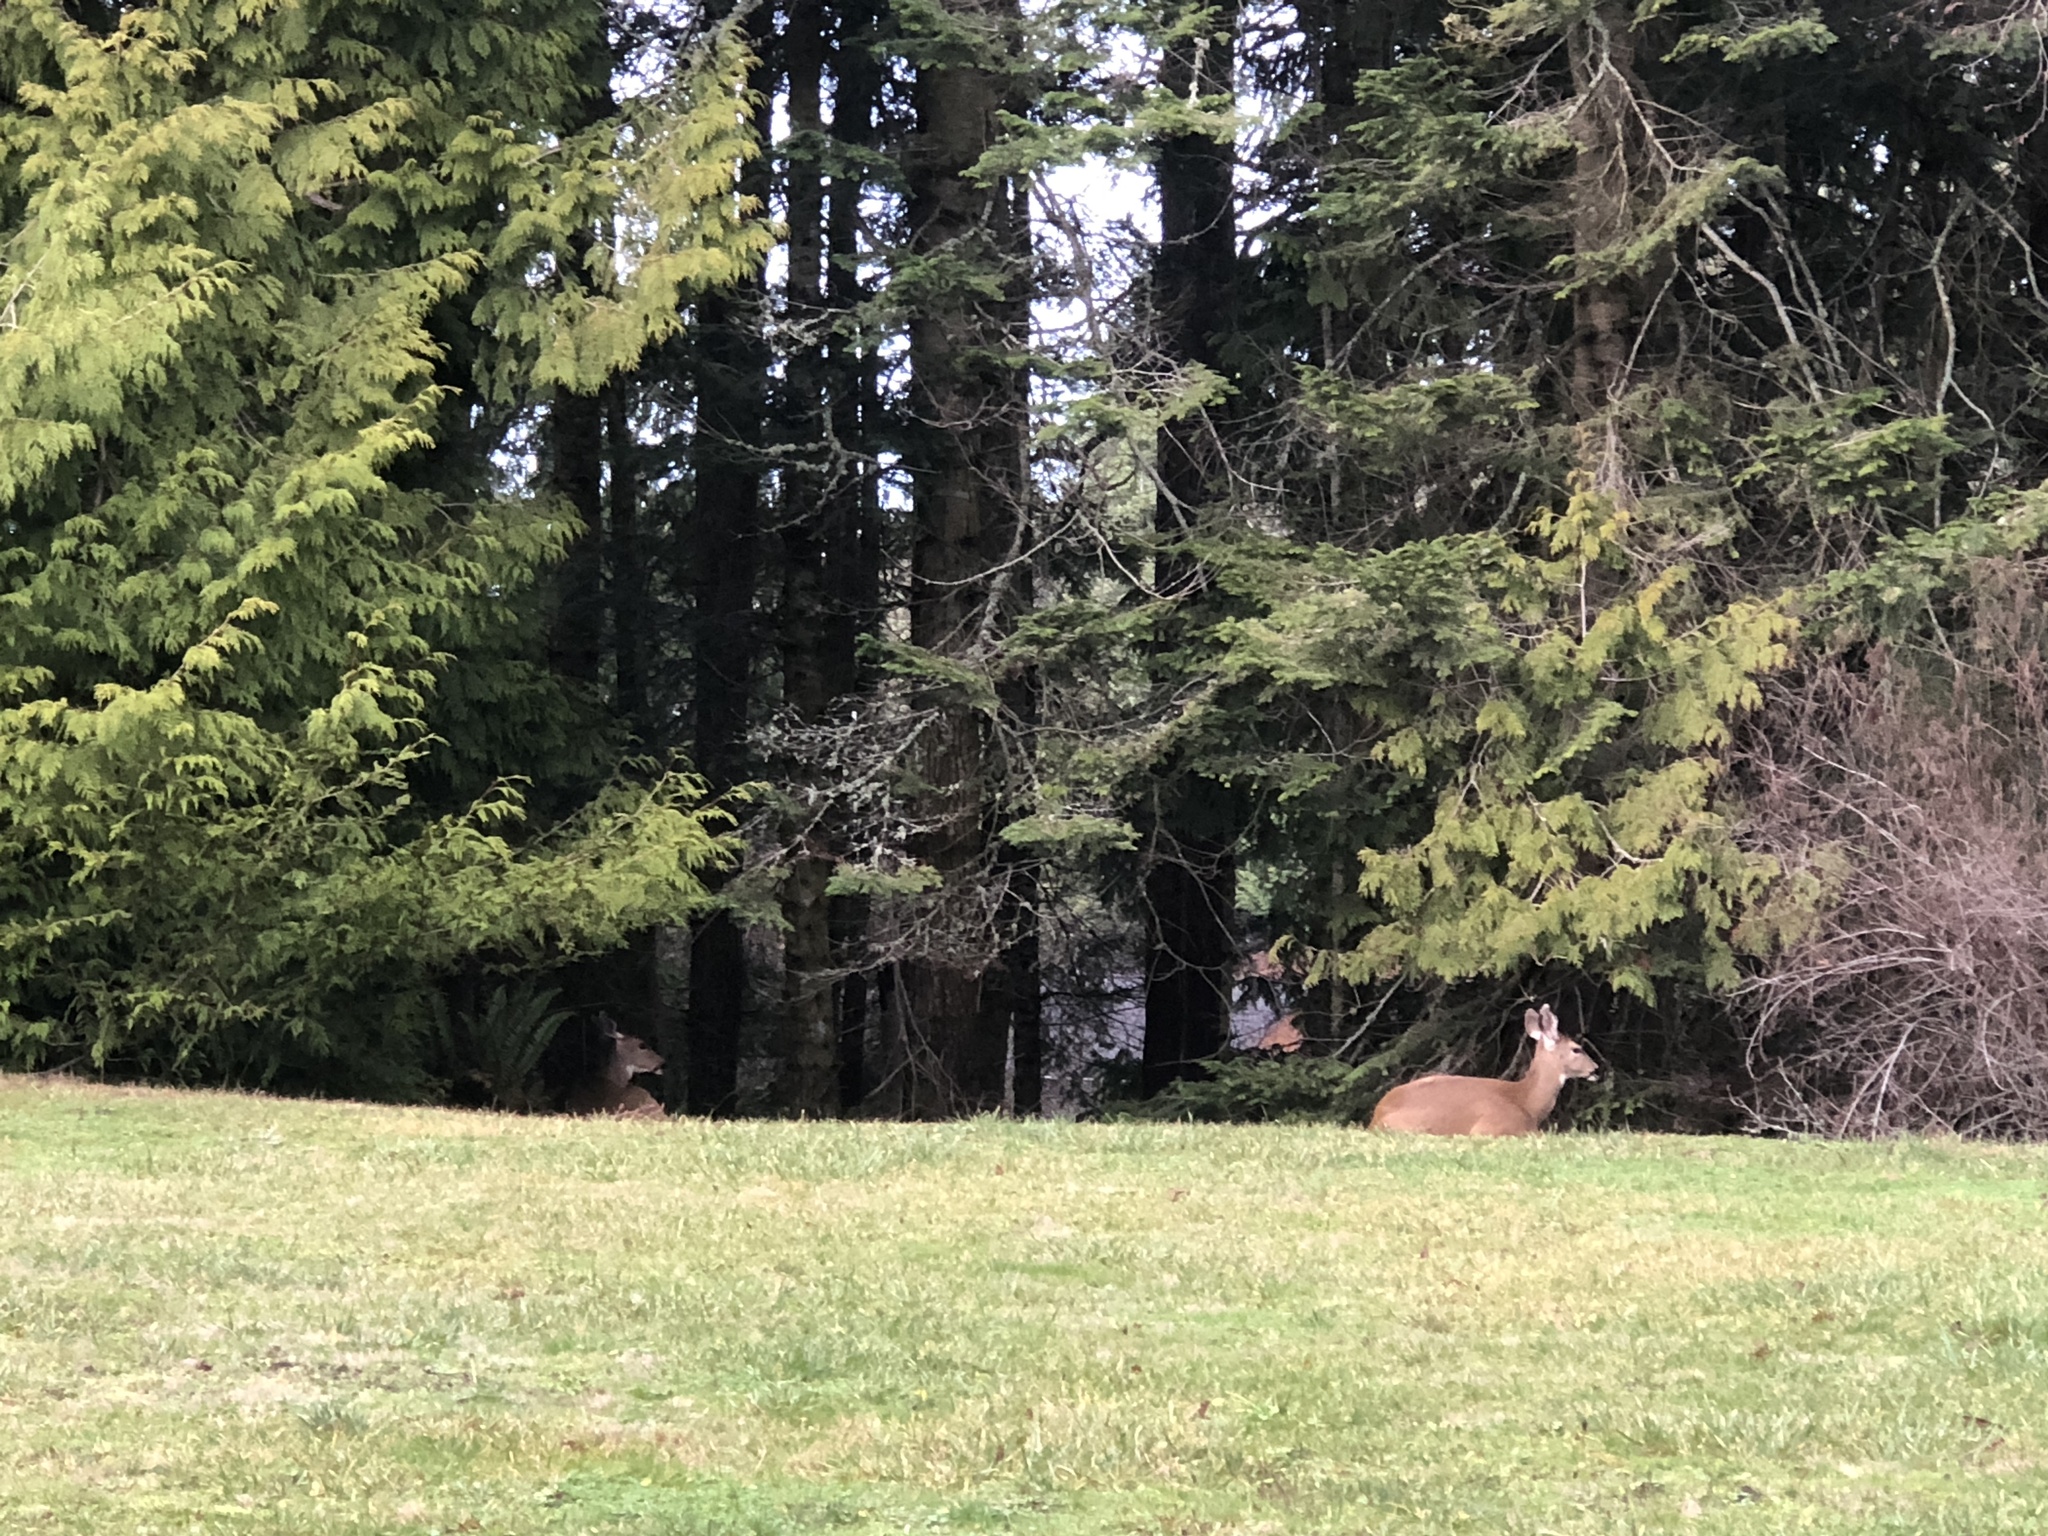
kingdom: Animalia
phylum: Chordata
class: Mammalia
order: Artiodactyla
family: Cervidae
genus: Odocoileus
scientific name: Odocoileus hemionus
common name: Mule deer
